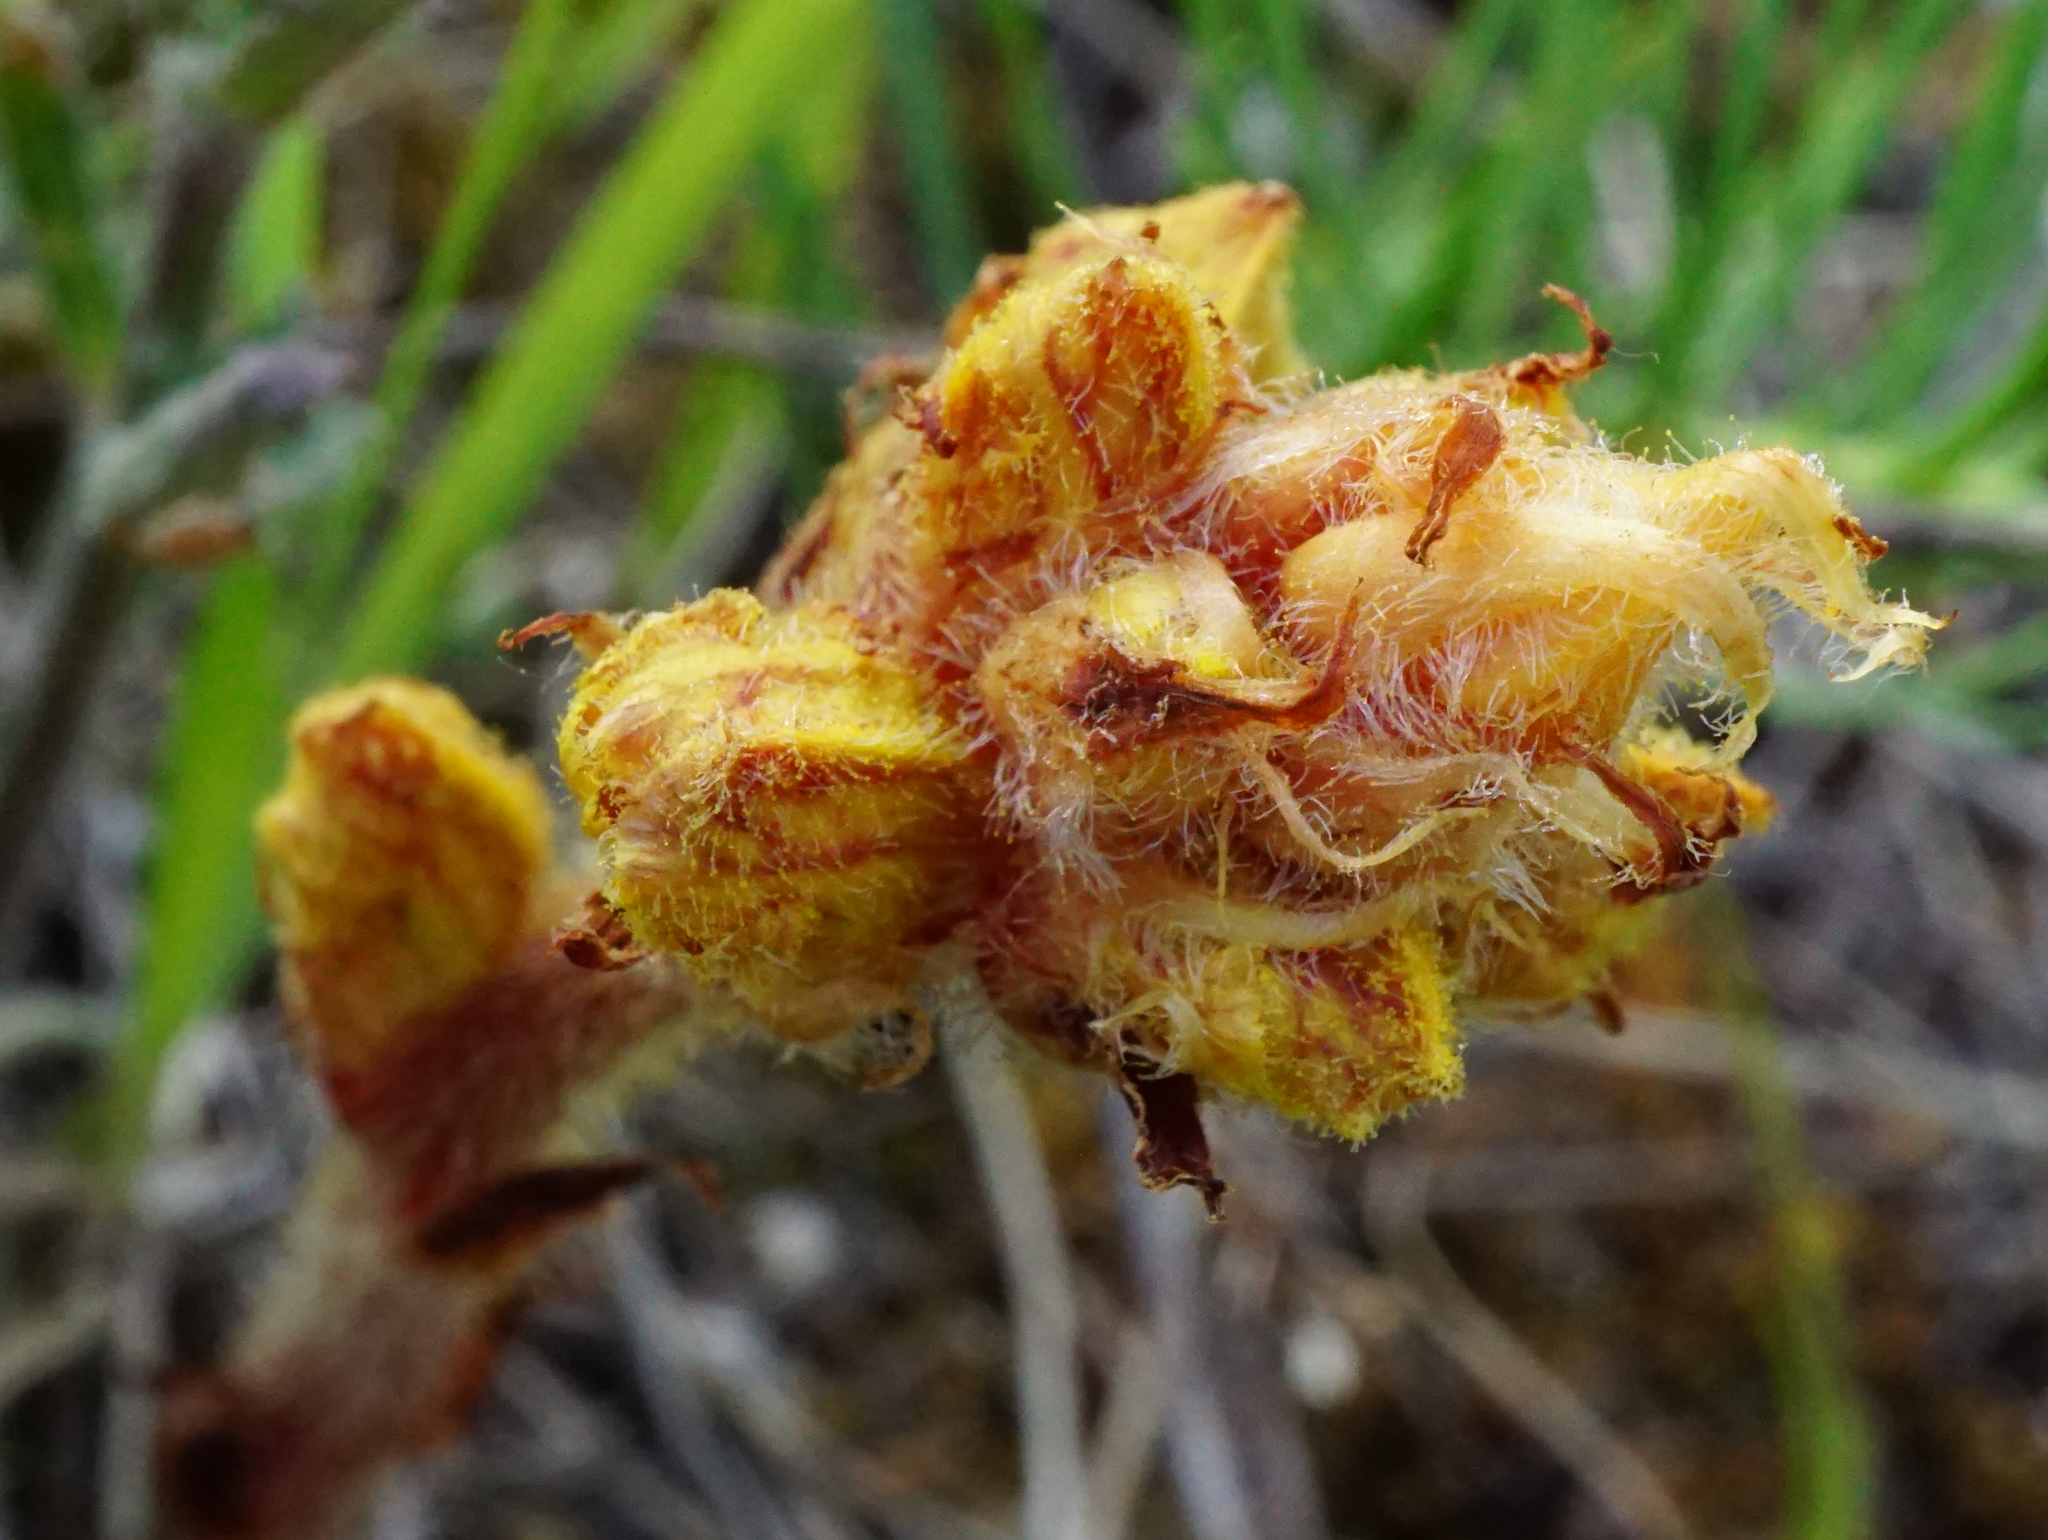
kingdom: Plantae
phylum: Tracheophyta
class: Magnoliopsida
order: Lamiales
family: Orobanchaceae
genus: Orobanche
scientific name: Orobanche gracilis
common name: Slender broomrape
